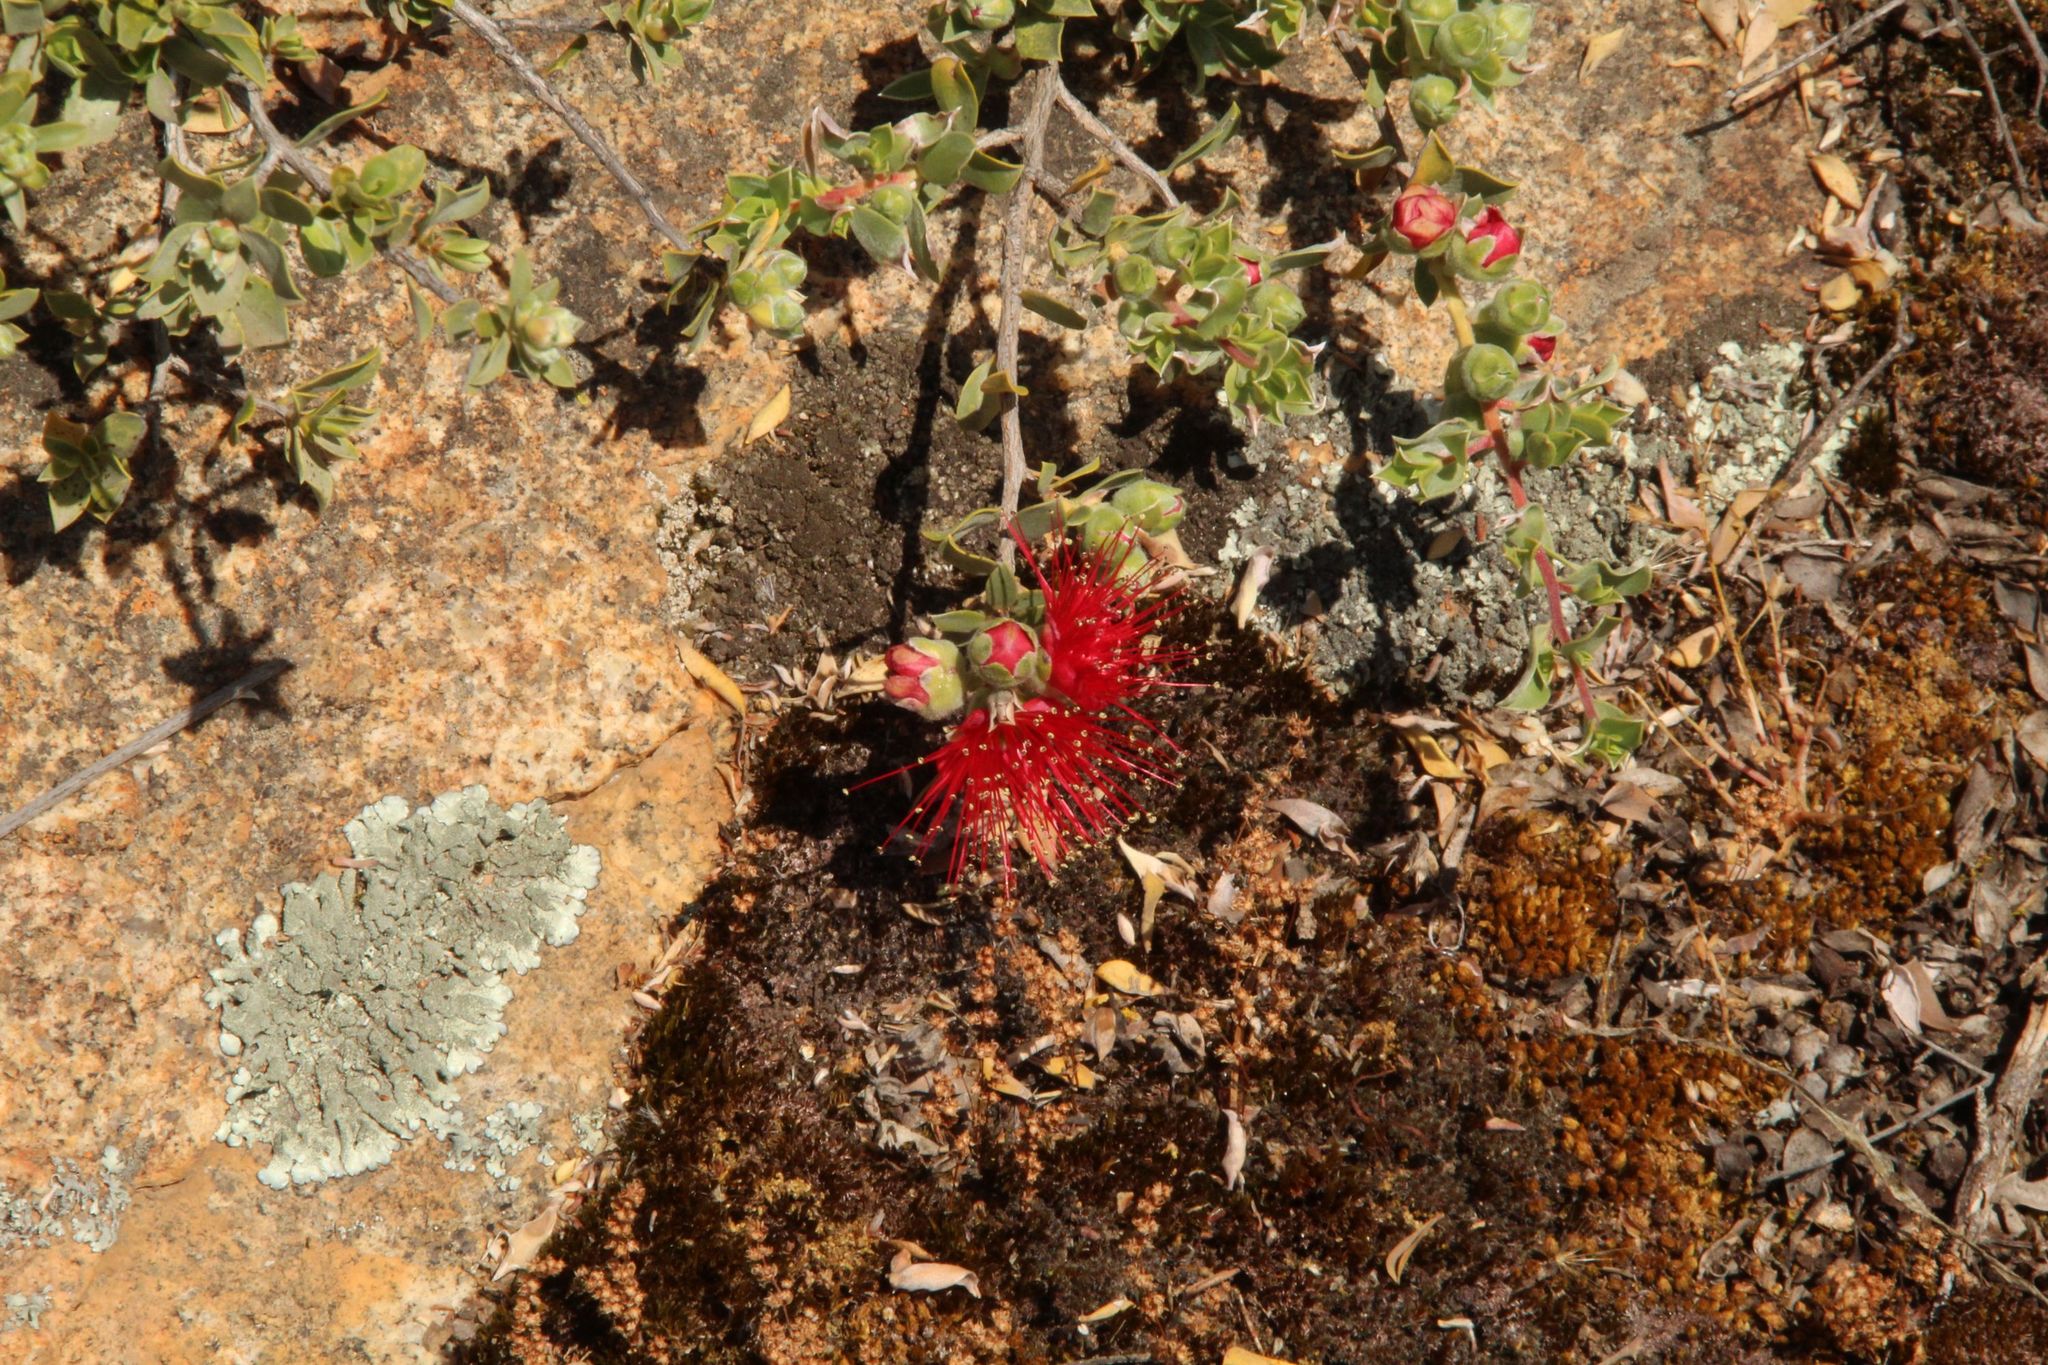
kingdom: Plantae
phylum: Tracheophyta
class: Magnoliopsida
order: Myrtales
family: Myrtaceae
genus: Kunzea
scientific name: Kunzea pulchella
